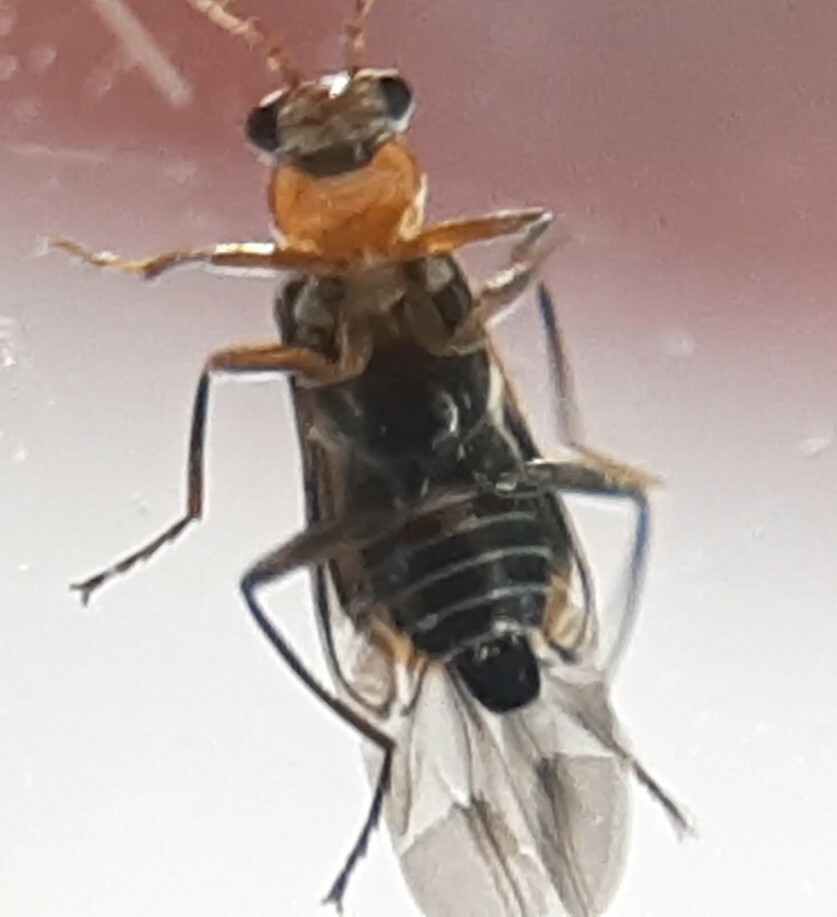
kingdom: Animalia
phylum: Arthropoda
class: Insecta
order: Coleoptera
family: Malachiidae
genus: Attalus
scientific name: Attalus minimus
